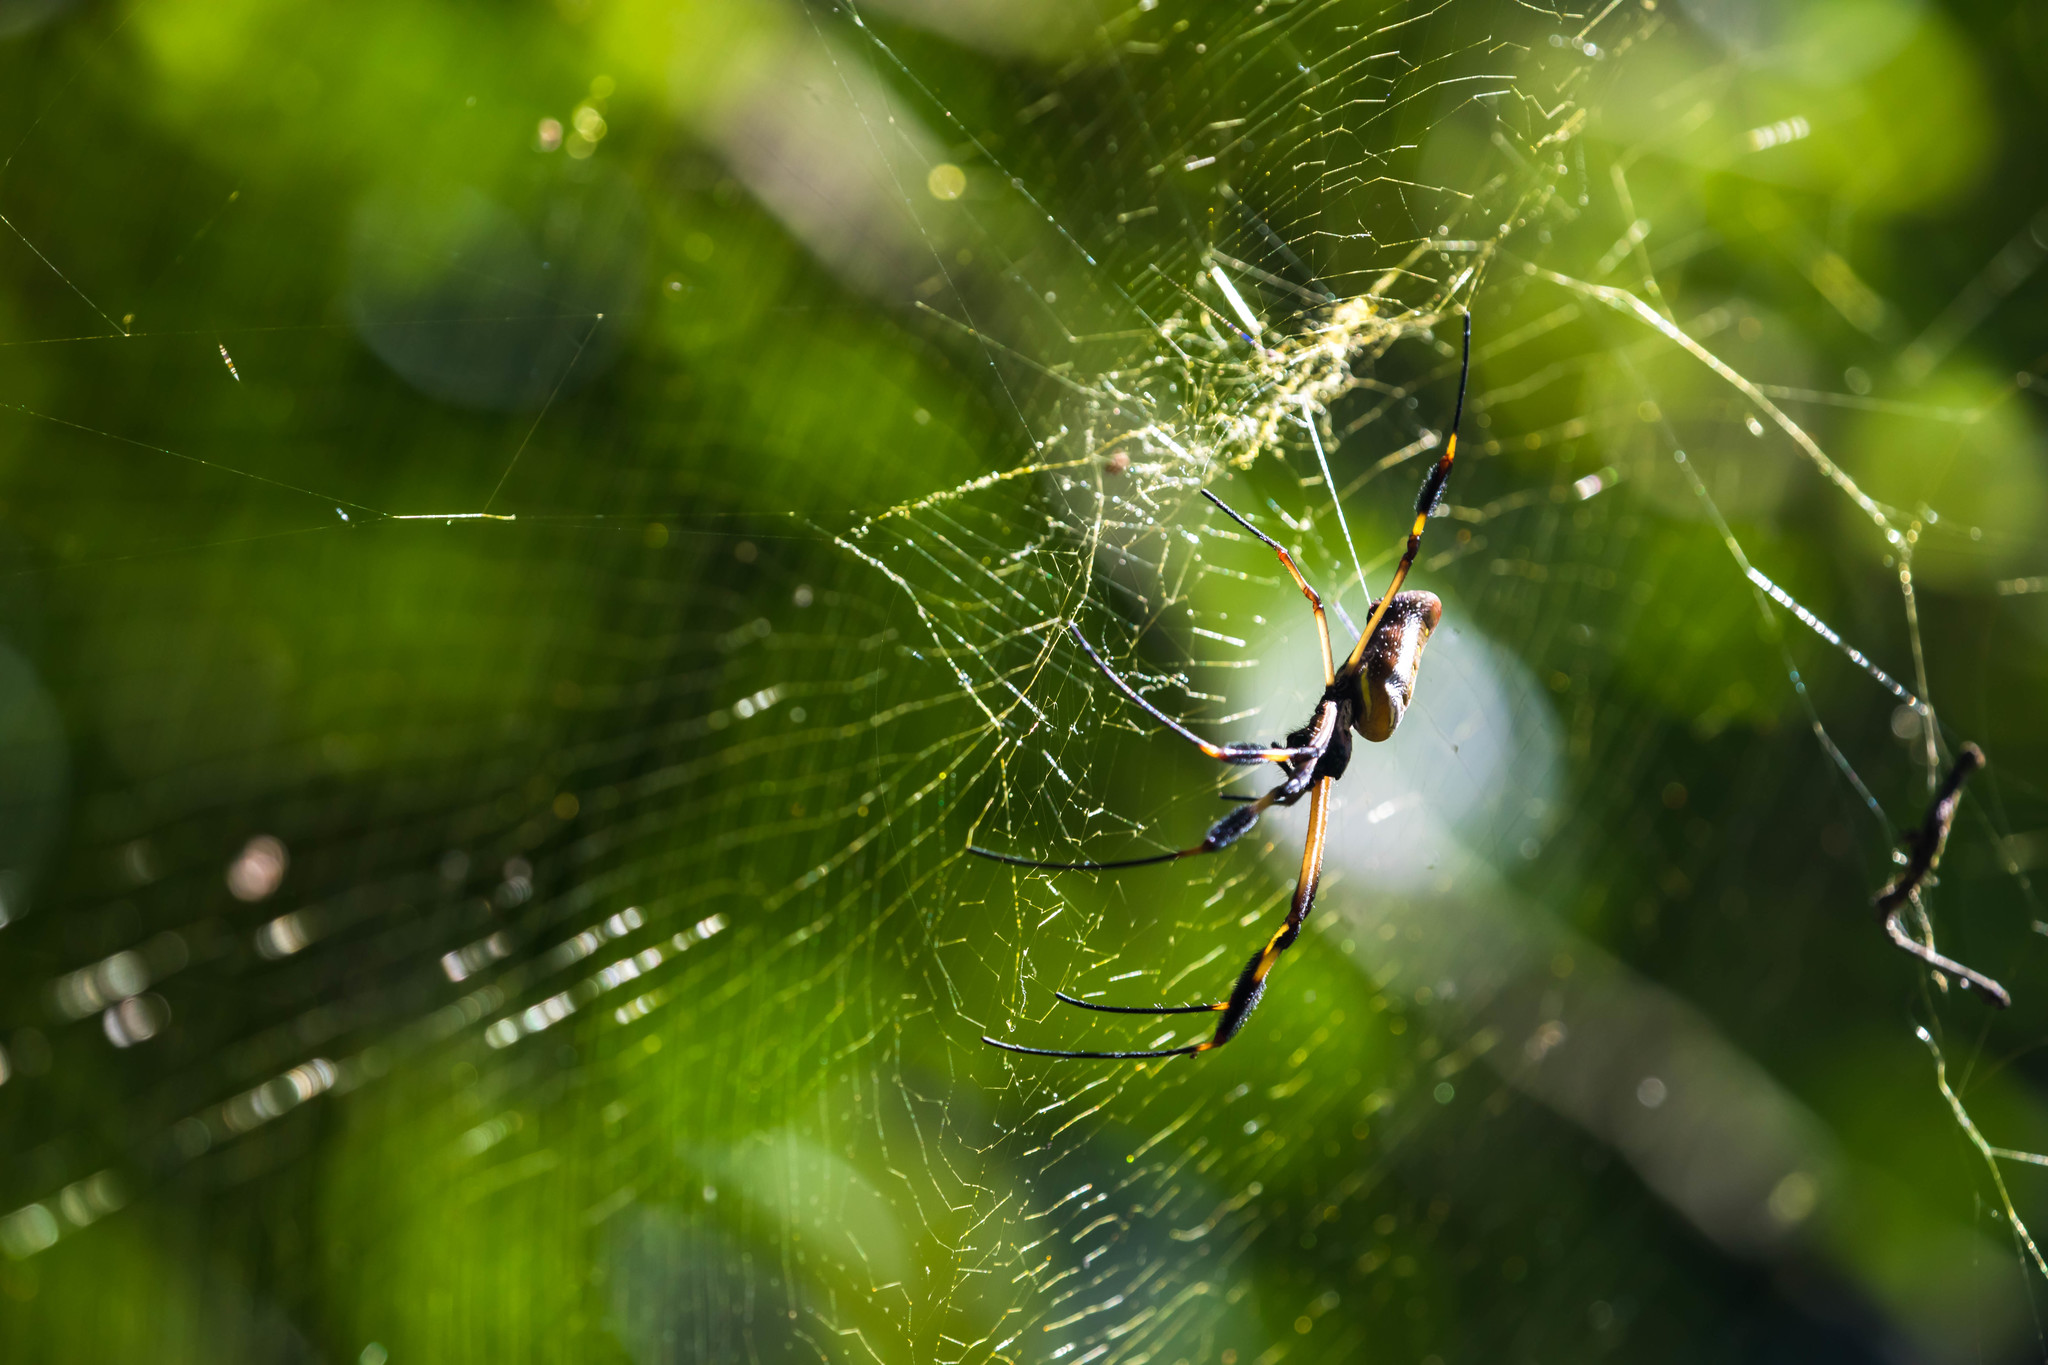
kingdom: Animalia
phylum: Arthropoda
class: Arachnida
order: Araneae
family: Araneidae
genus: Trichonephila
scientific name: Trichonephila clavipes
